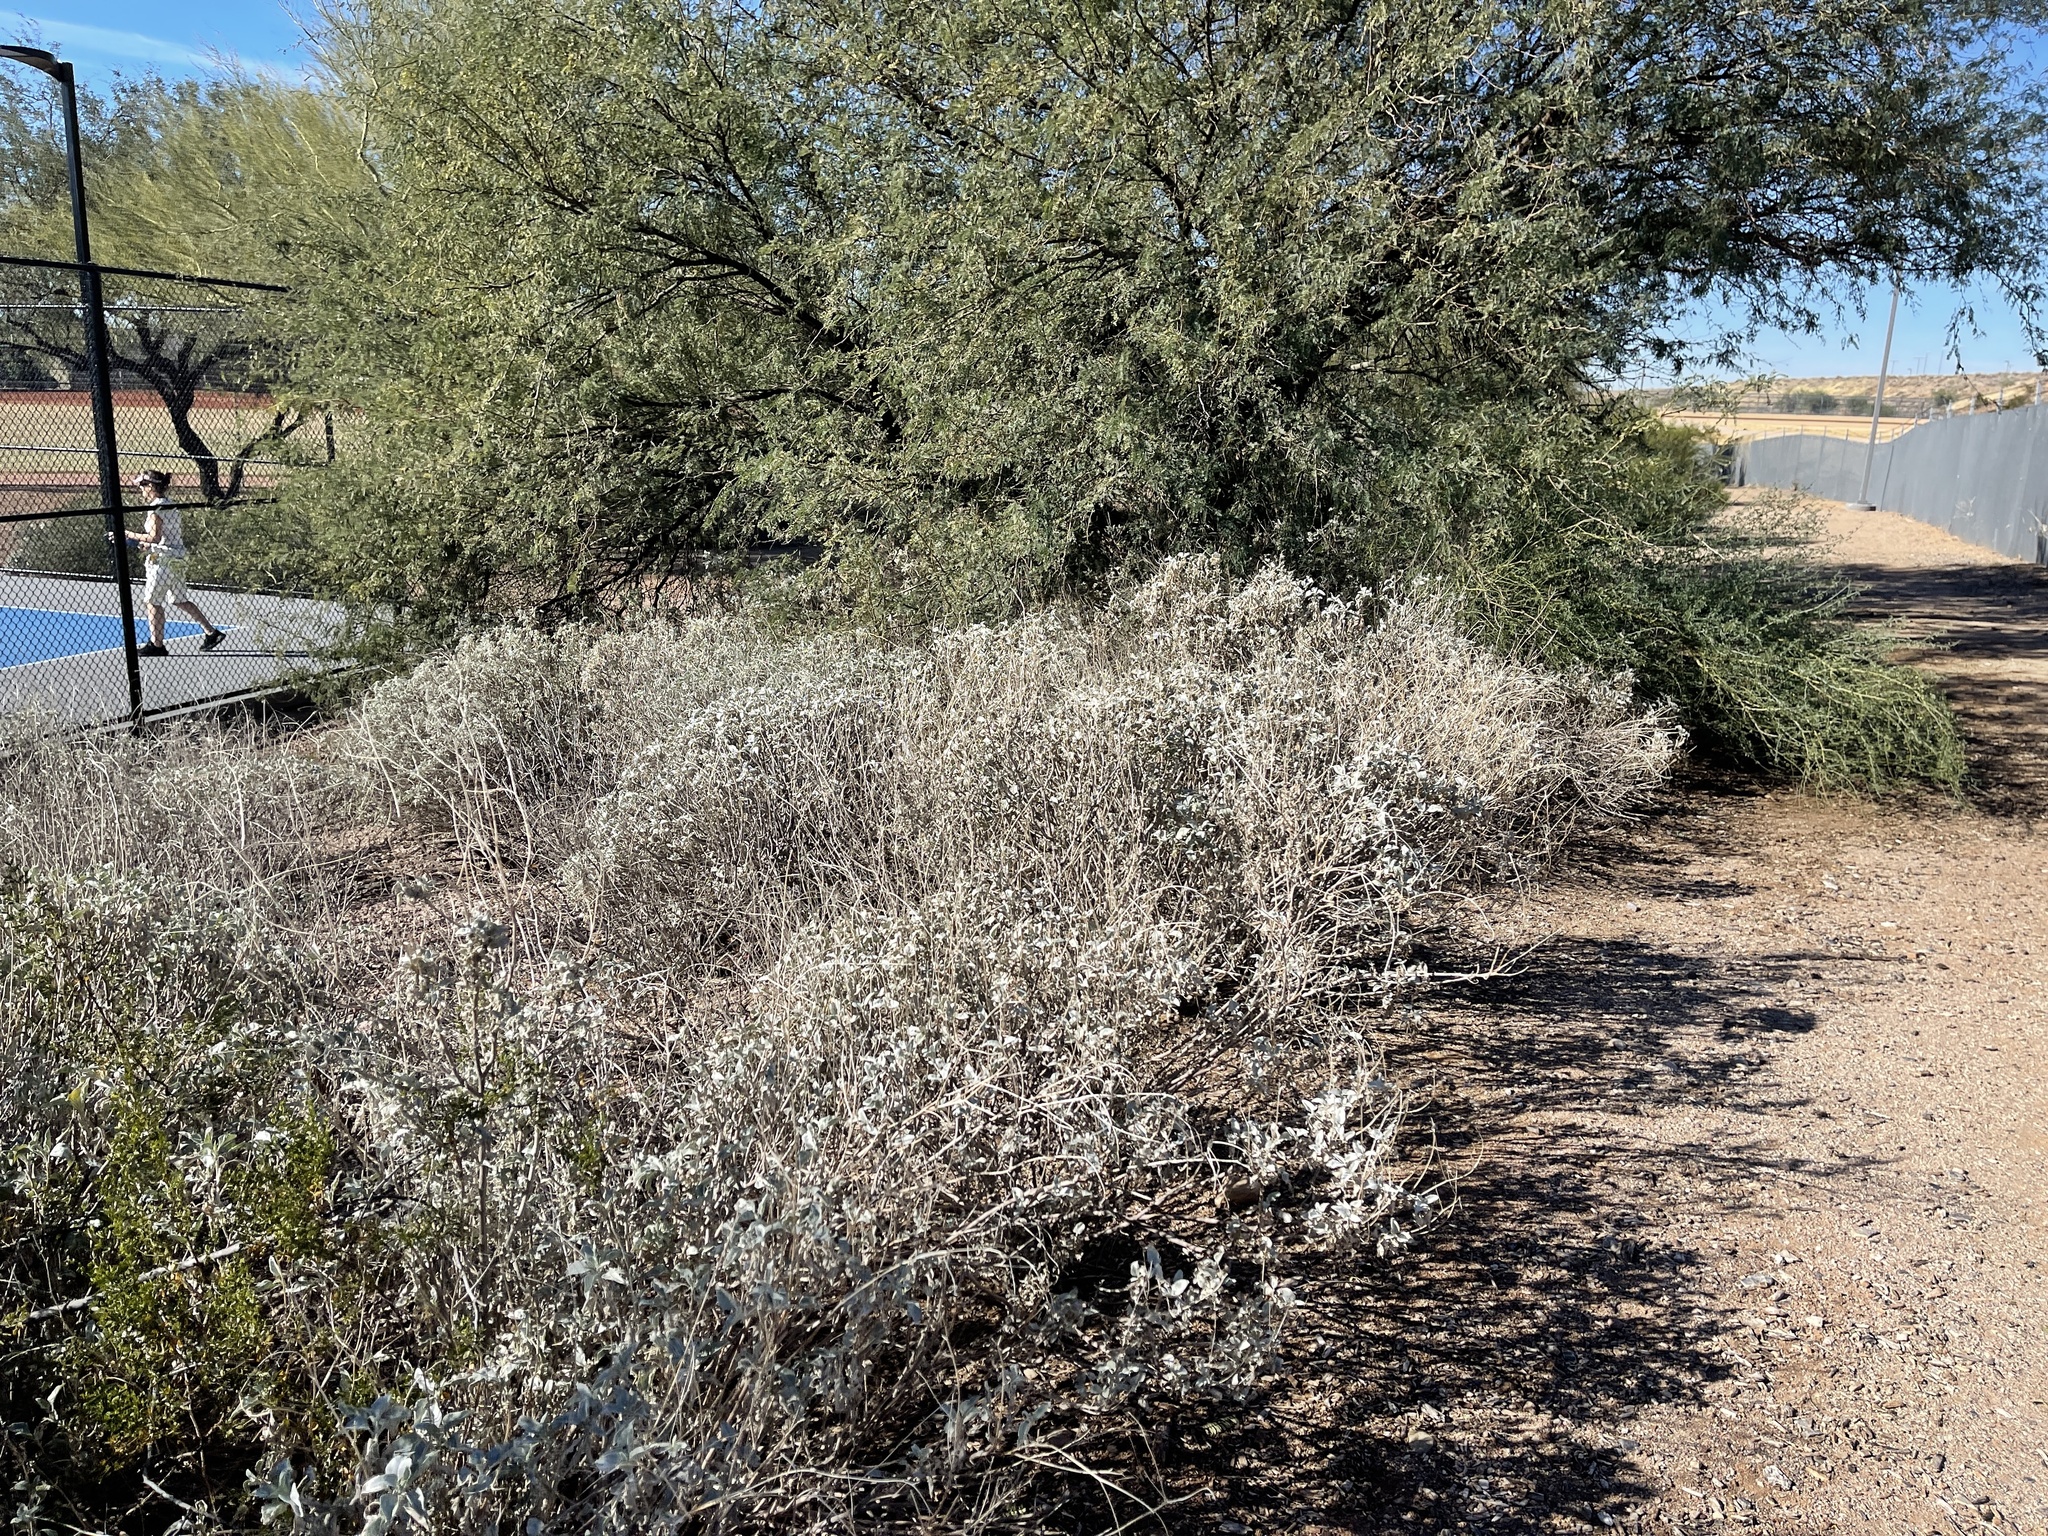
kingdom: Plantae
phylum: Tracheophyta
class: Magnoliopsida
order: Asterales
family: Asteraceae
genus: Encelia
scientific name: Encelia farinosa
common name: Brittlebush
